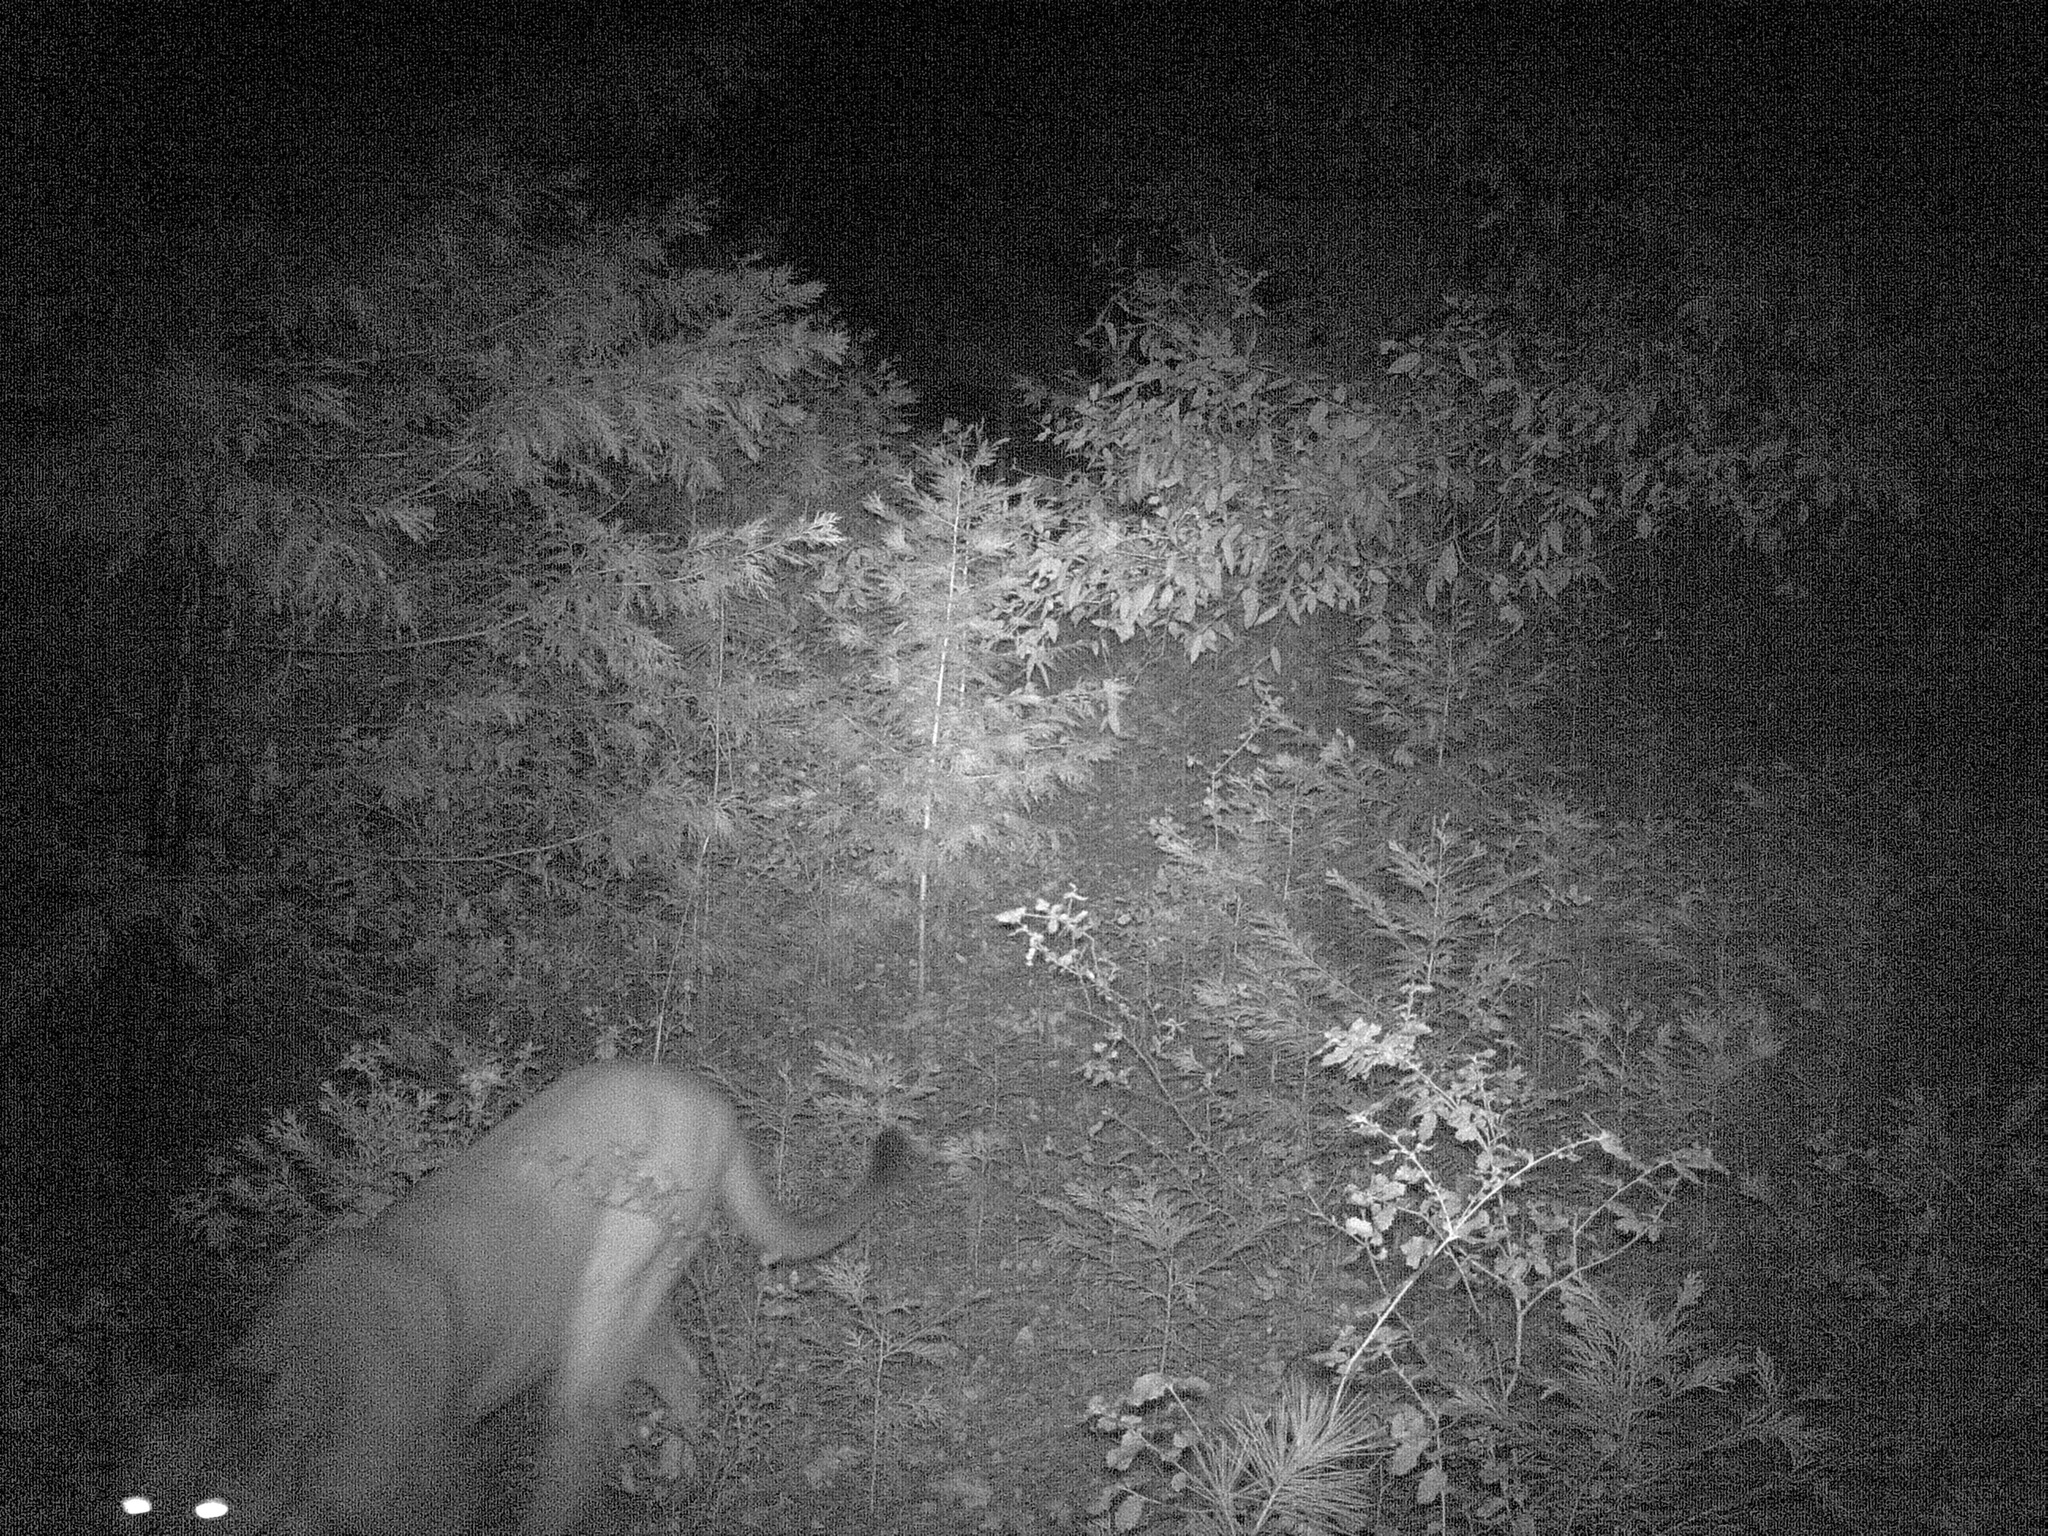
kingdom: Animalia
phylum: Chordata
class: Mammalia
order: Carnivora
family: Felidae
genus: Puma
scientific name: Puma concolor
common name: Puma
